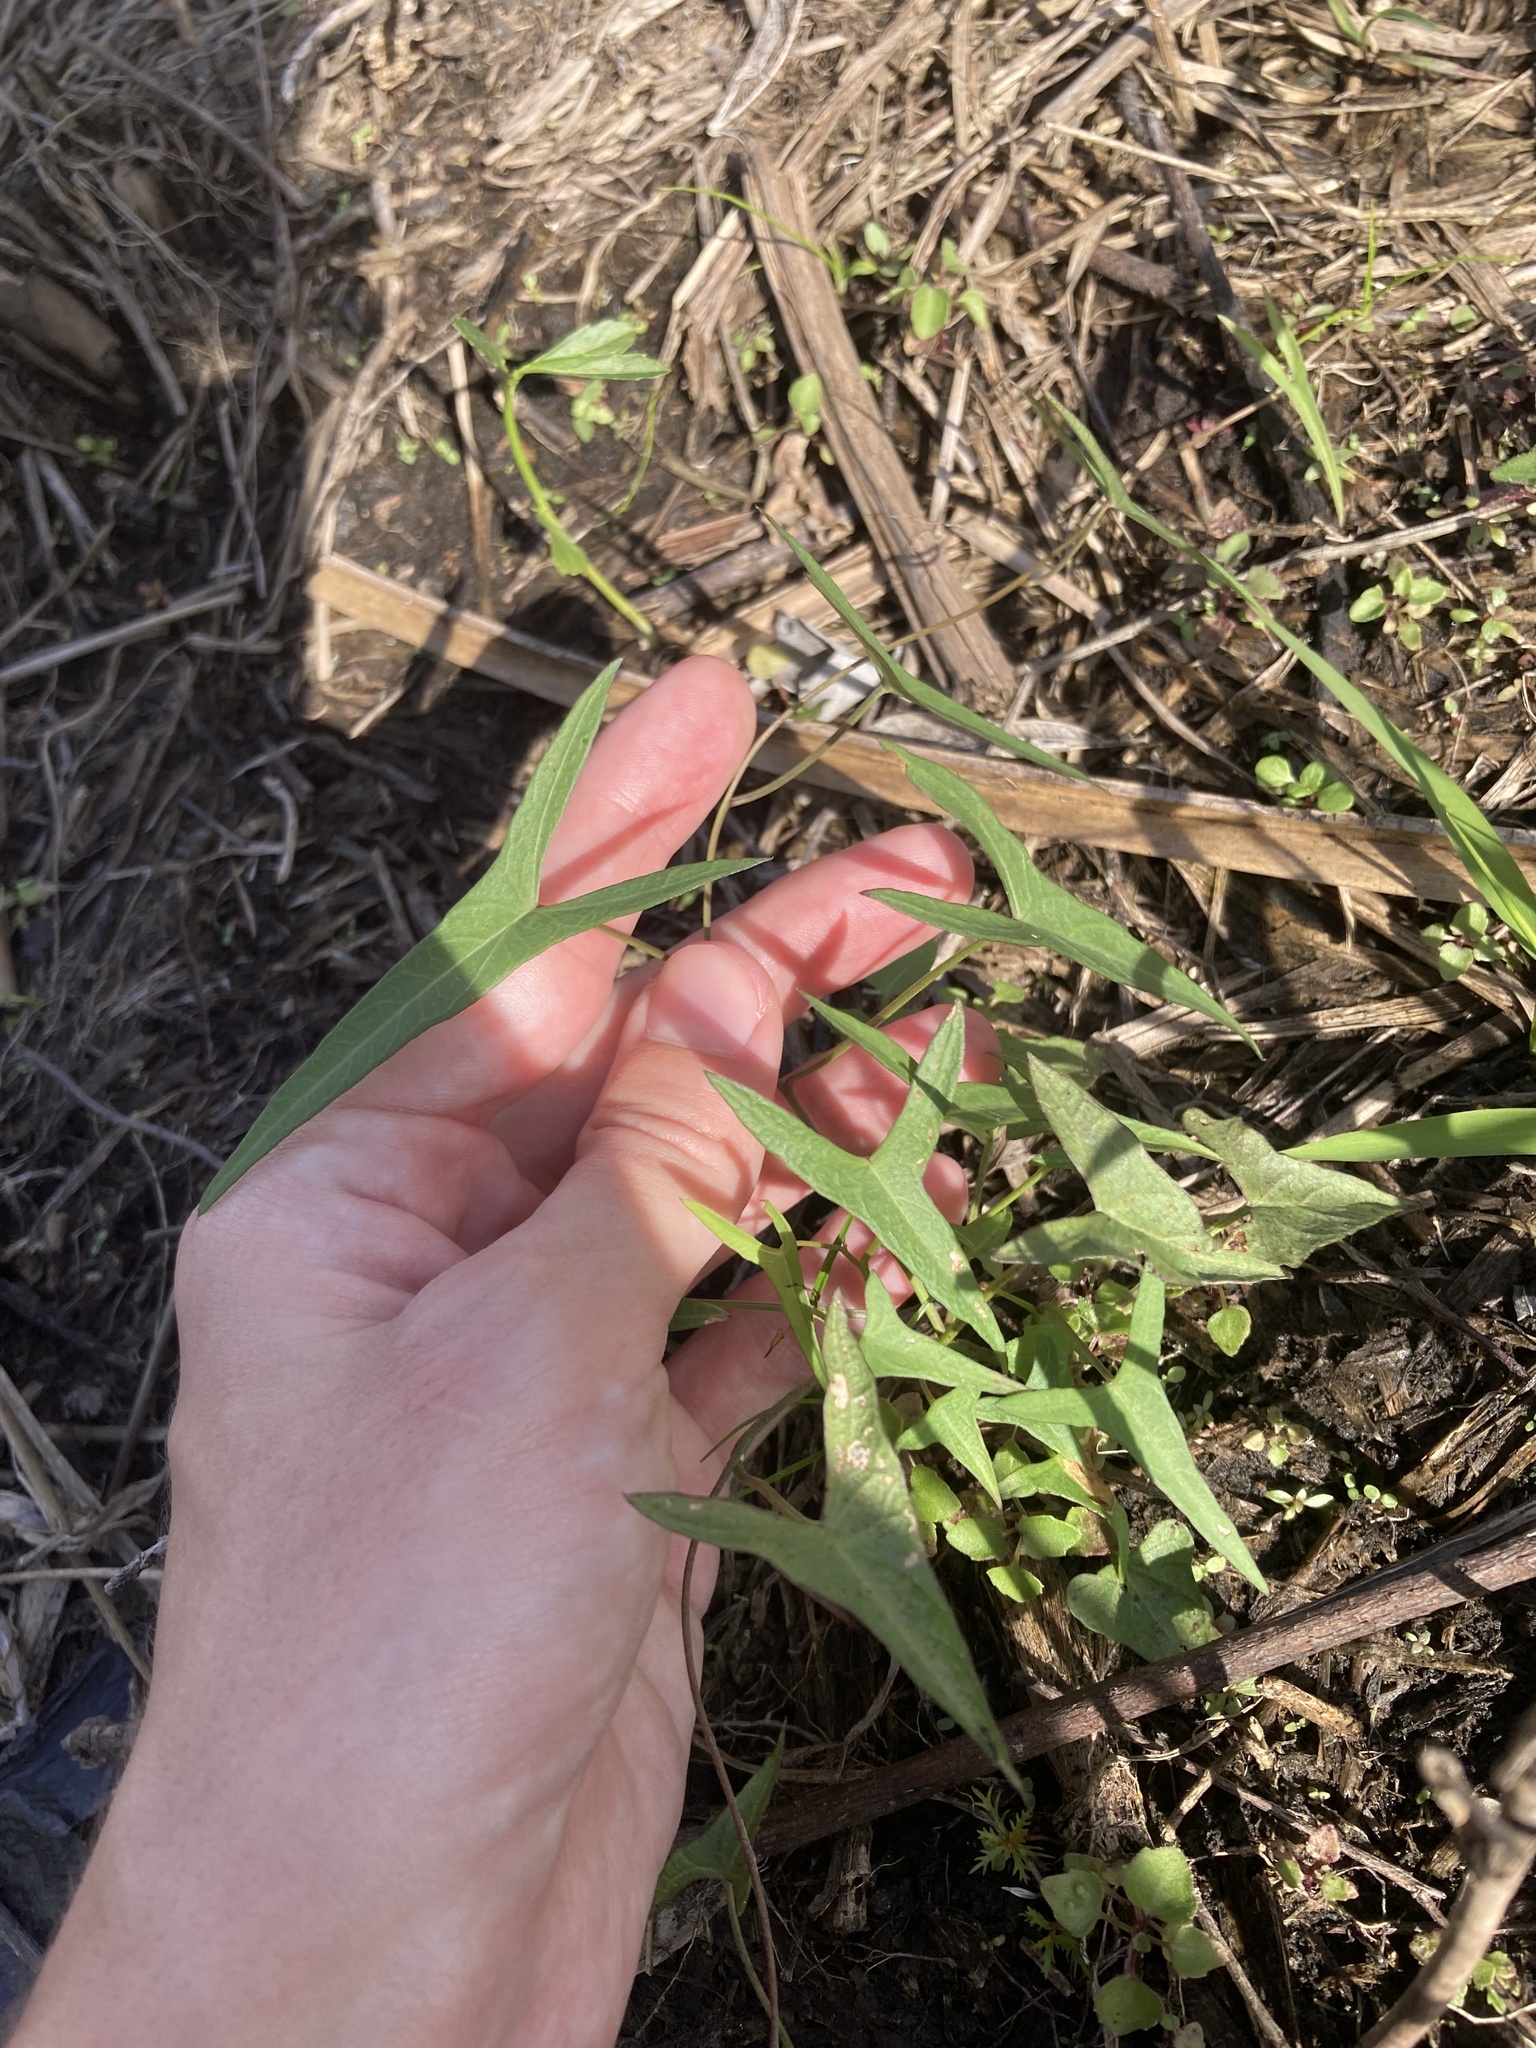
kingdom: Plantae
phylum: Tracheophyta
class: Magnoliopsida
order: Solanales
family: Convolvulaceae
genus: Ipomoea
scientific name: Ipomoea sagittata
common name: Saltmarsh morning glory
